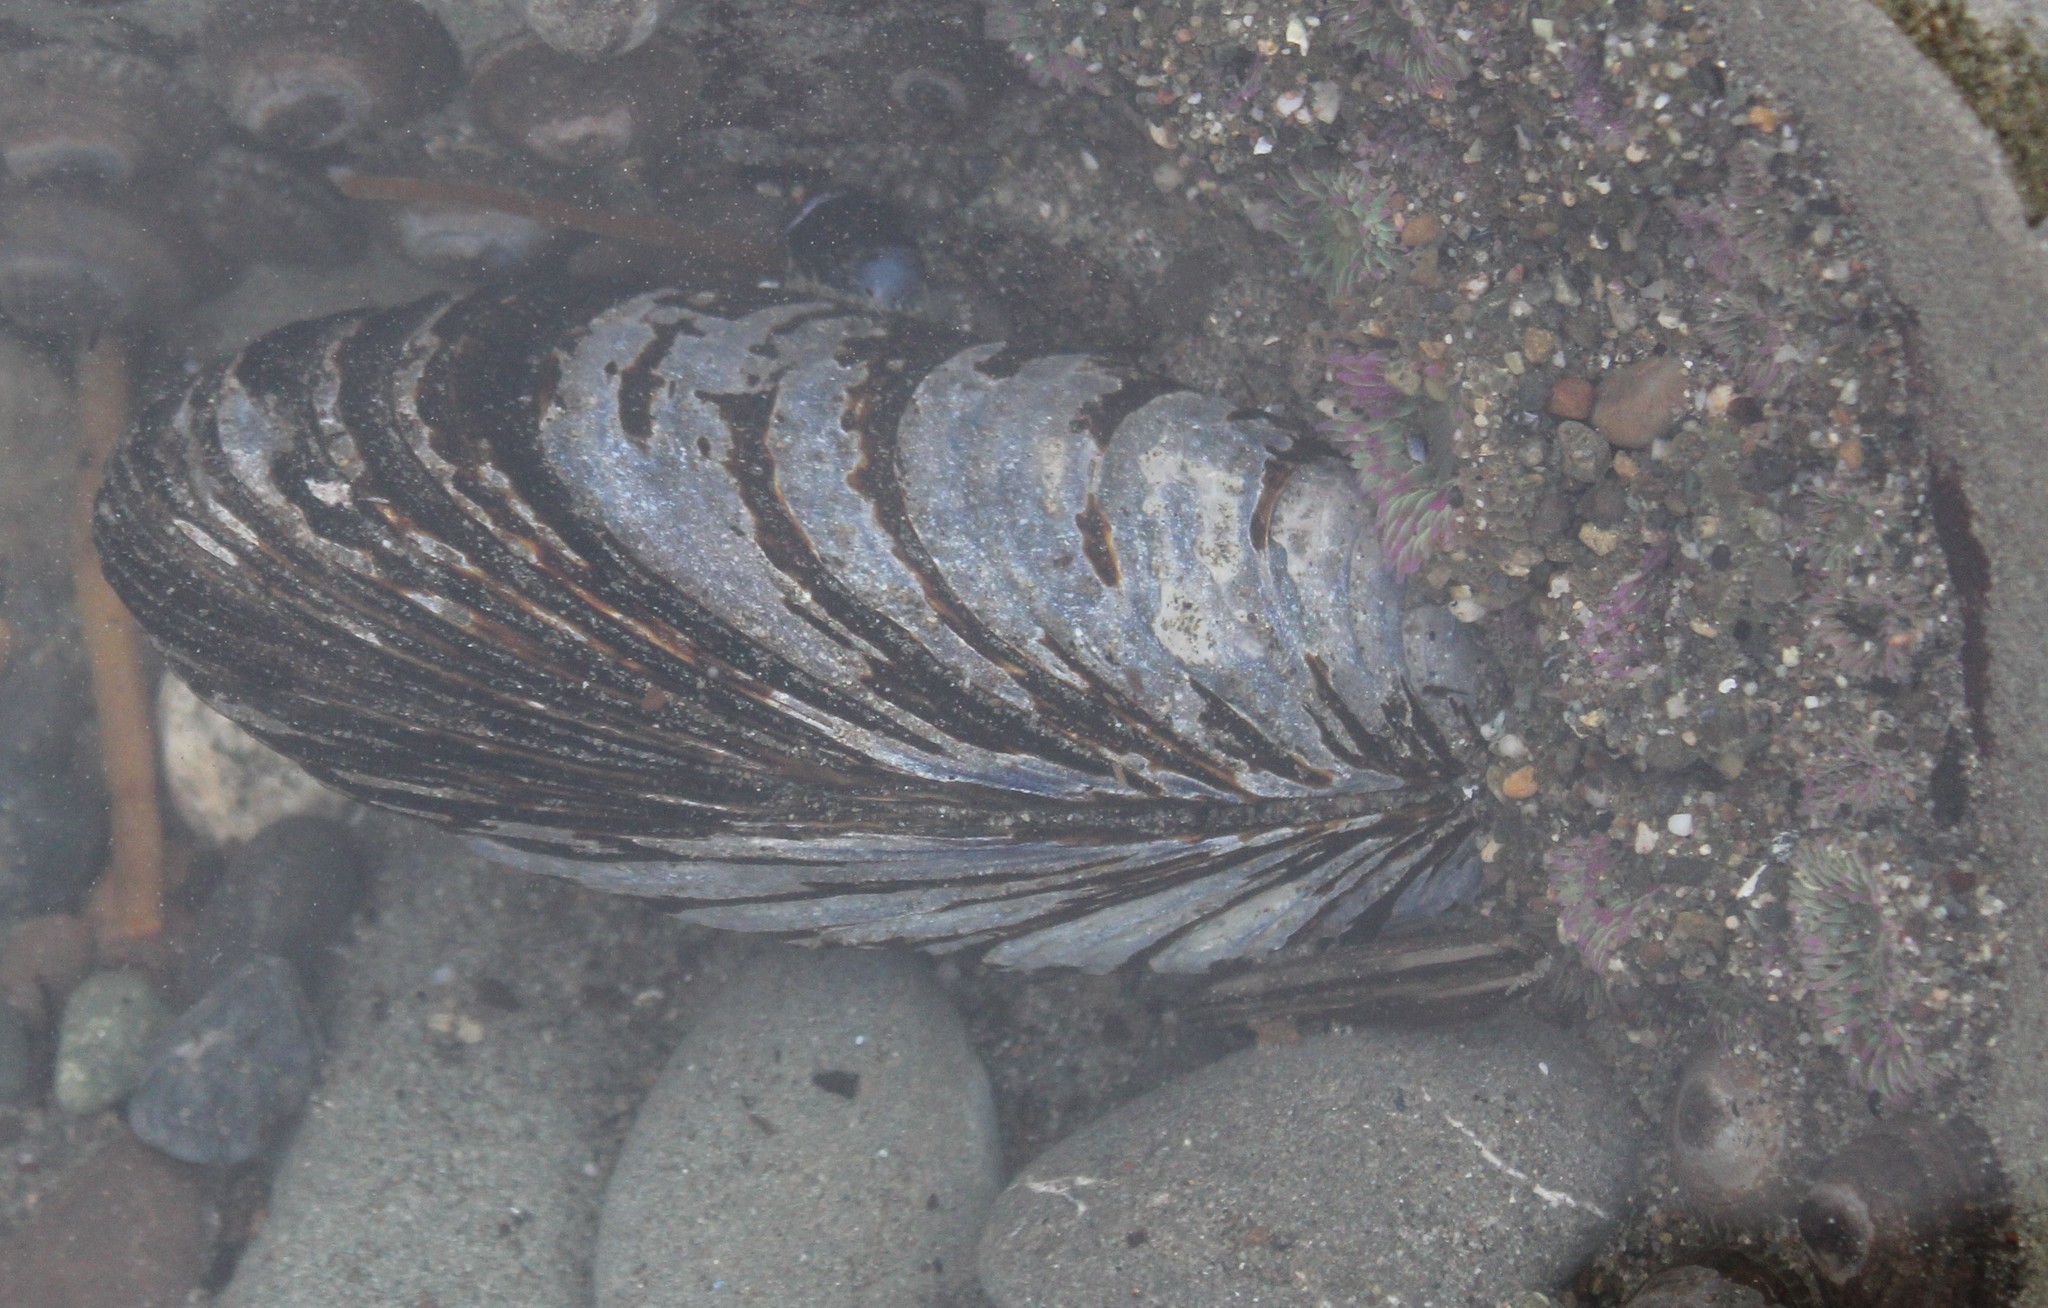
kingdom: Animalia
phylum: Mollusca
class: Bivalvia
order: Mytilida
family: Mytilidae
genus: Mytilus
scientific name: Mytilus californianus
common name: California mussel
